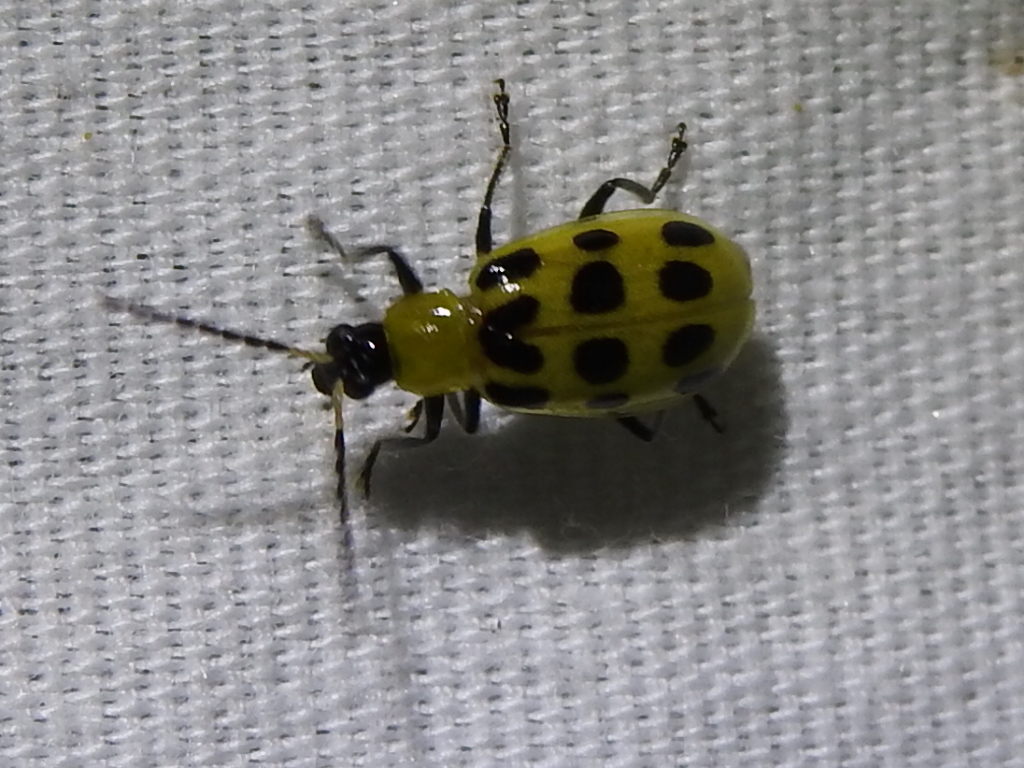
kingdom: Animalia
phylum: Arthropoda
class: Insecta
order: Coleoptera
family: Chrysomelidae
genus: Diabrotica
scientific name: Diabrotica undecimpunctata
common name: Spotted cucumber beetle
